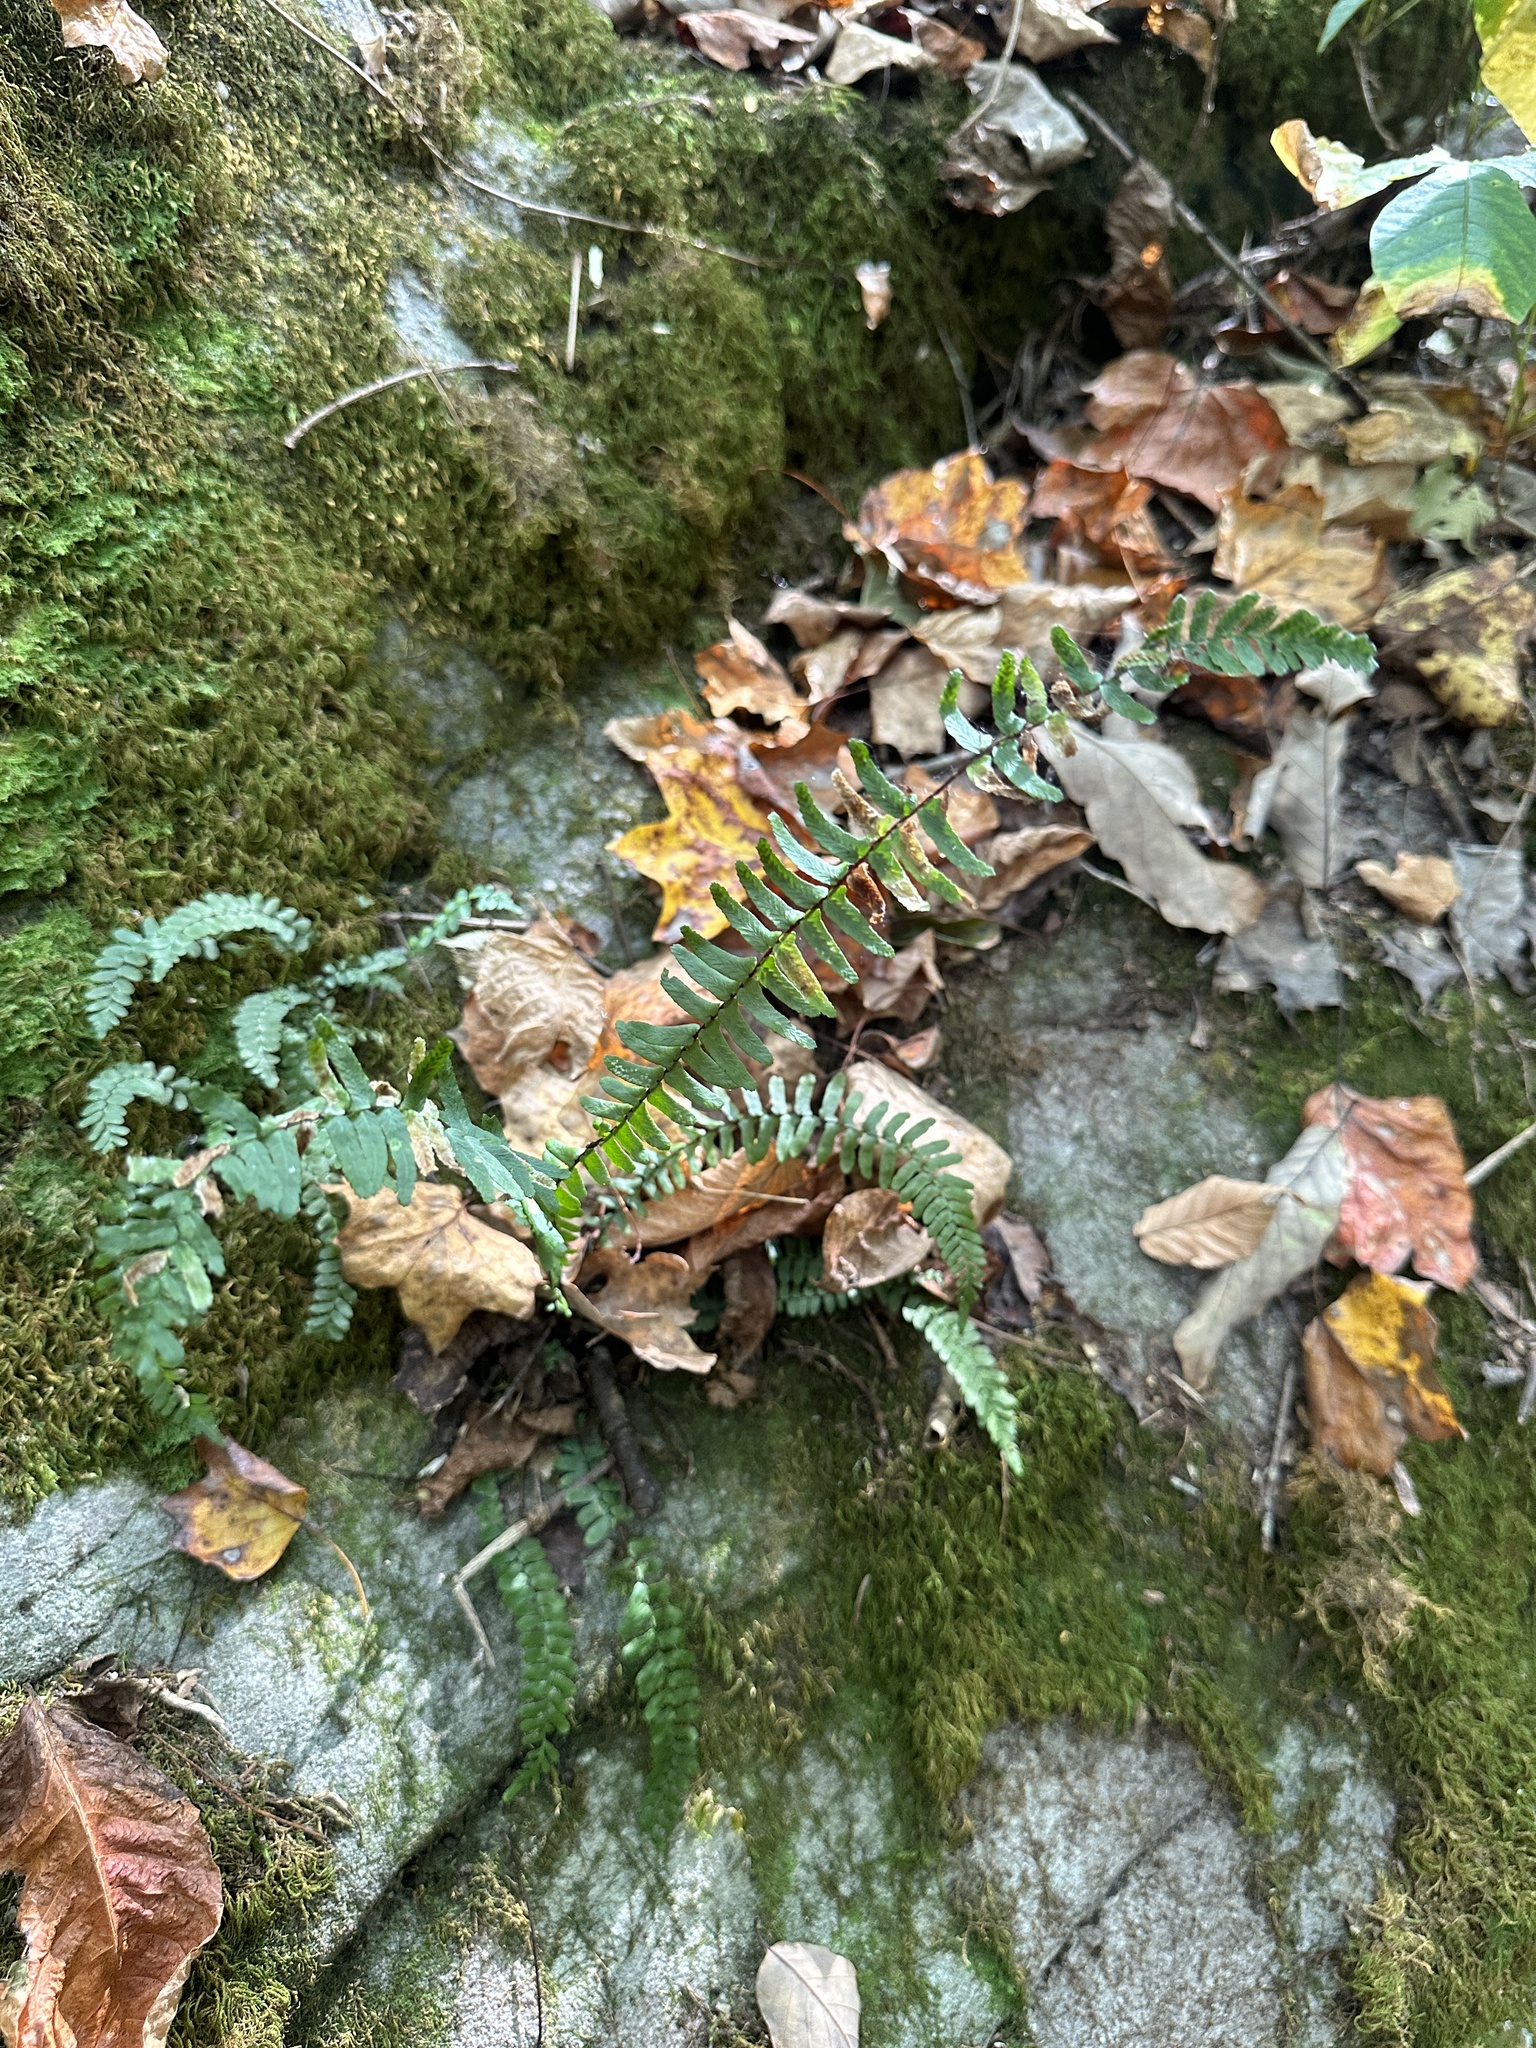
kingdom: Plantae
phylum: Tracheophyta
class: Polypodiopsida
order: Polypodiales
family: Aspleniaceae
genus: Asplenium
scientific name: Asplenium platyneuron
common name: Ebony spleenwort
